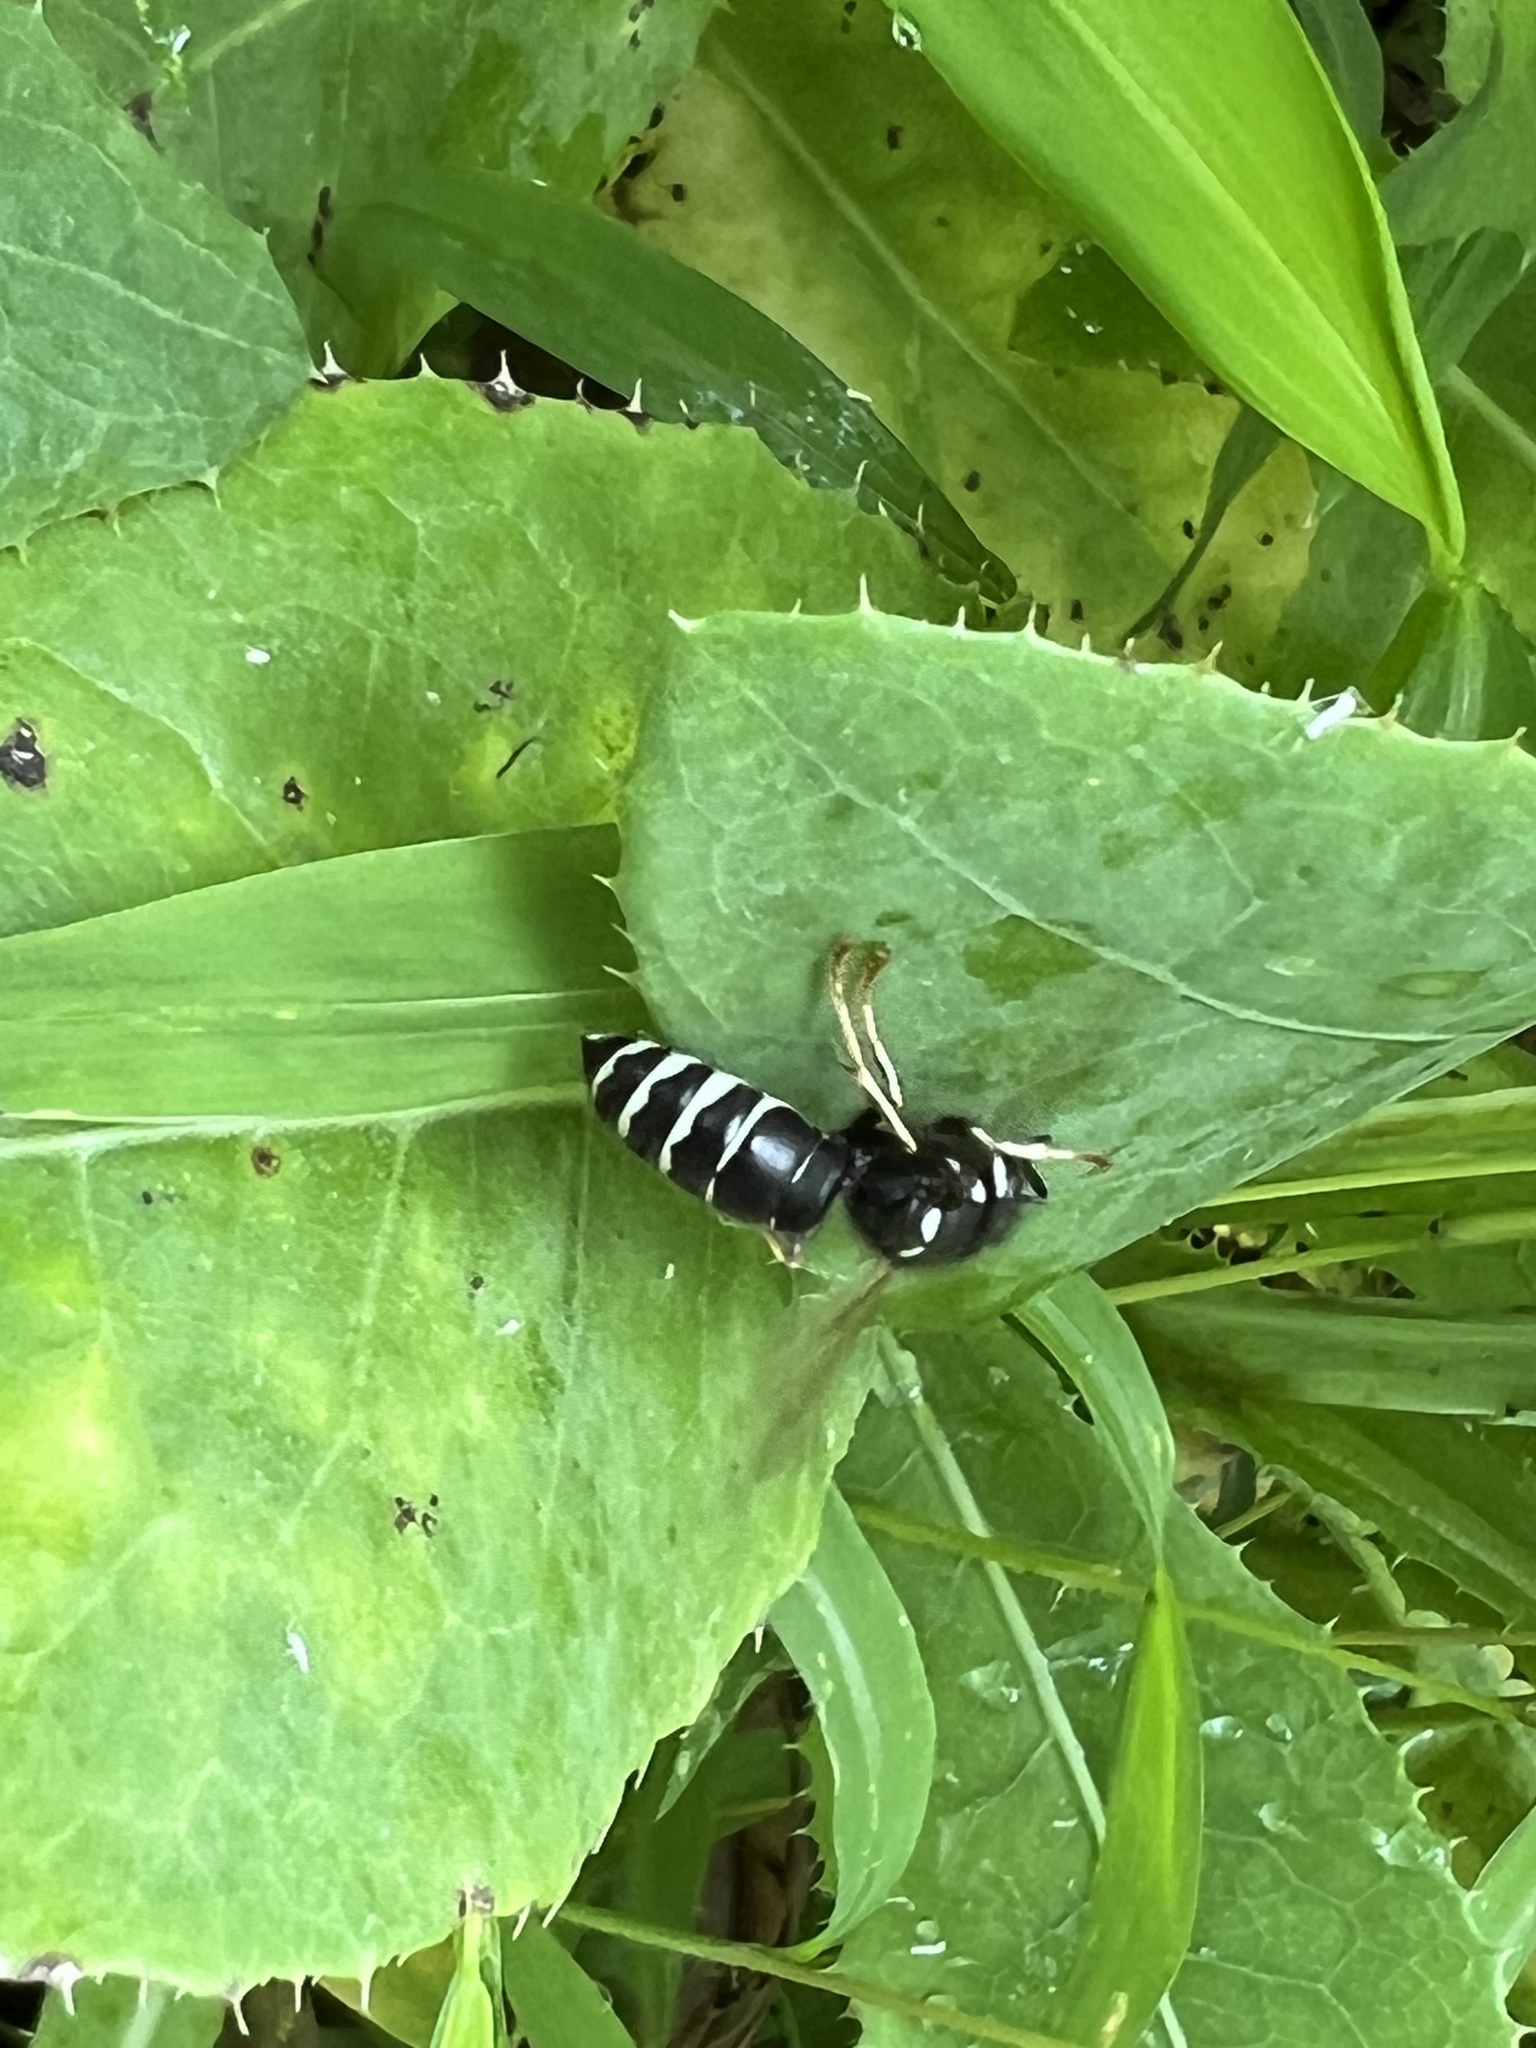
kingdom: Animalia
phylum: Arthropoda
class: Insecta
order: Hymenoptera
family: Vespidae
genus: Vespula
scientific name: Vespula consobrina
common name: Blackjacket
